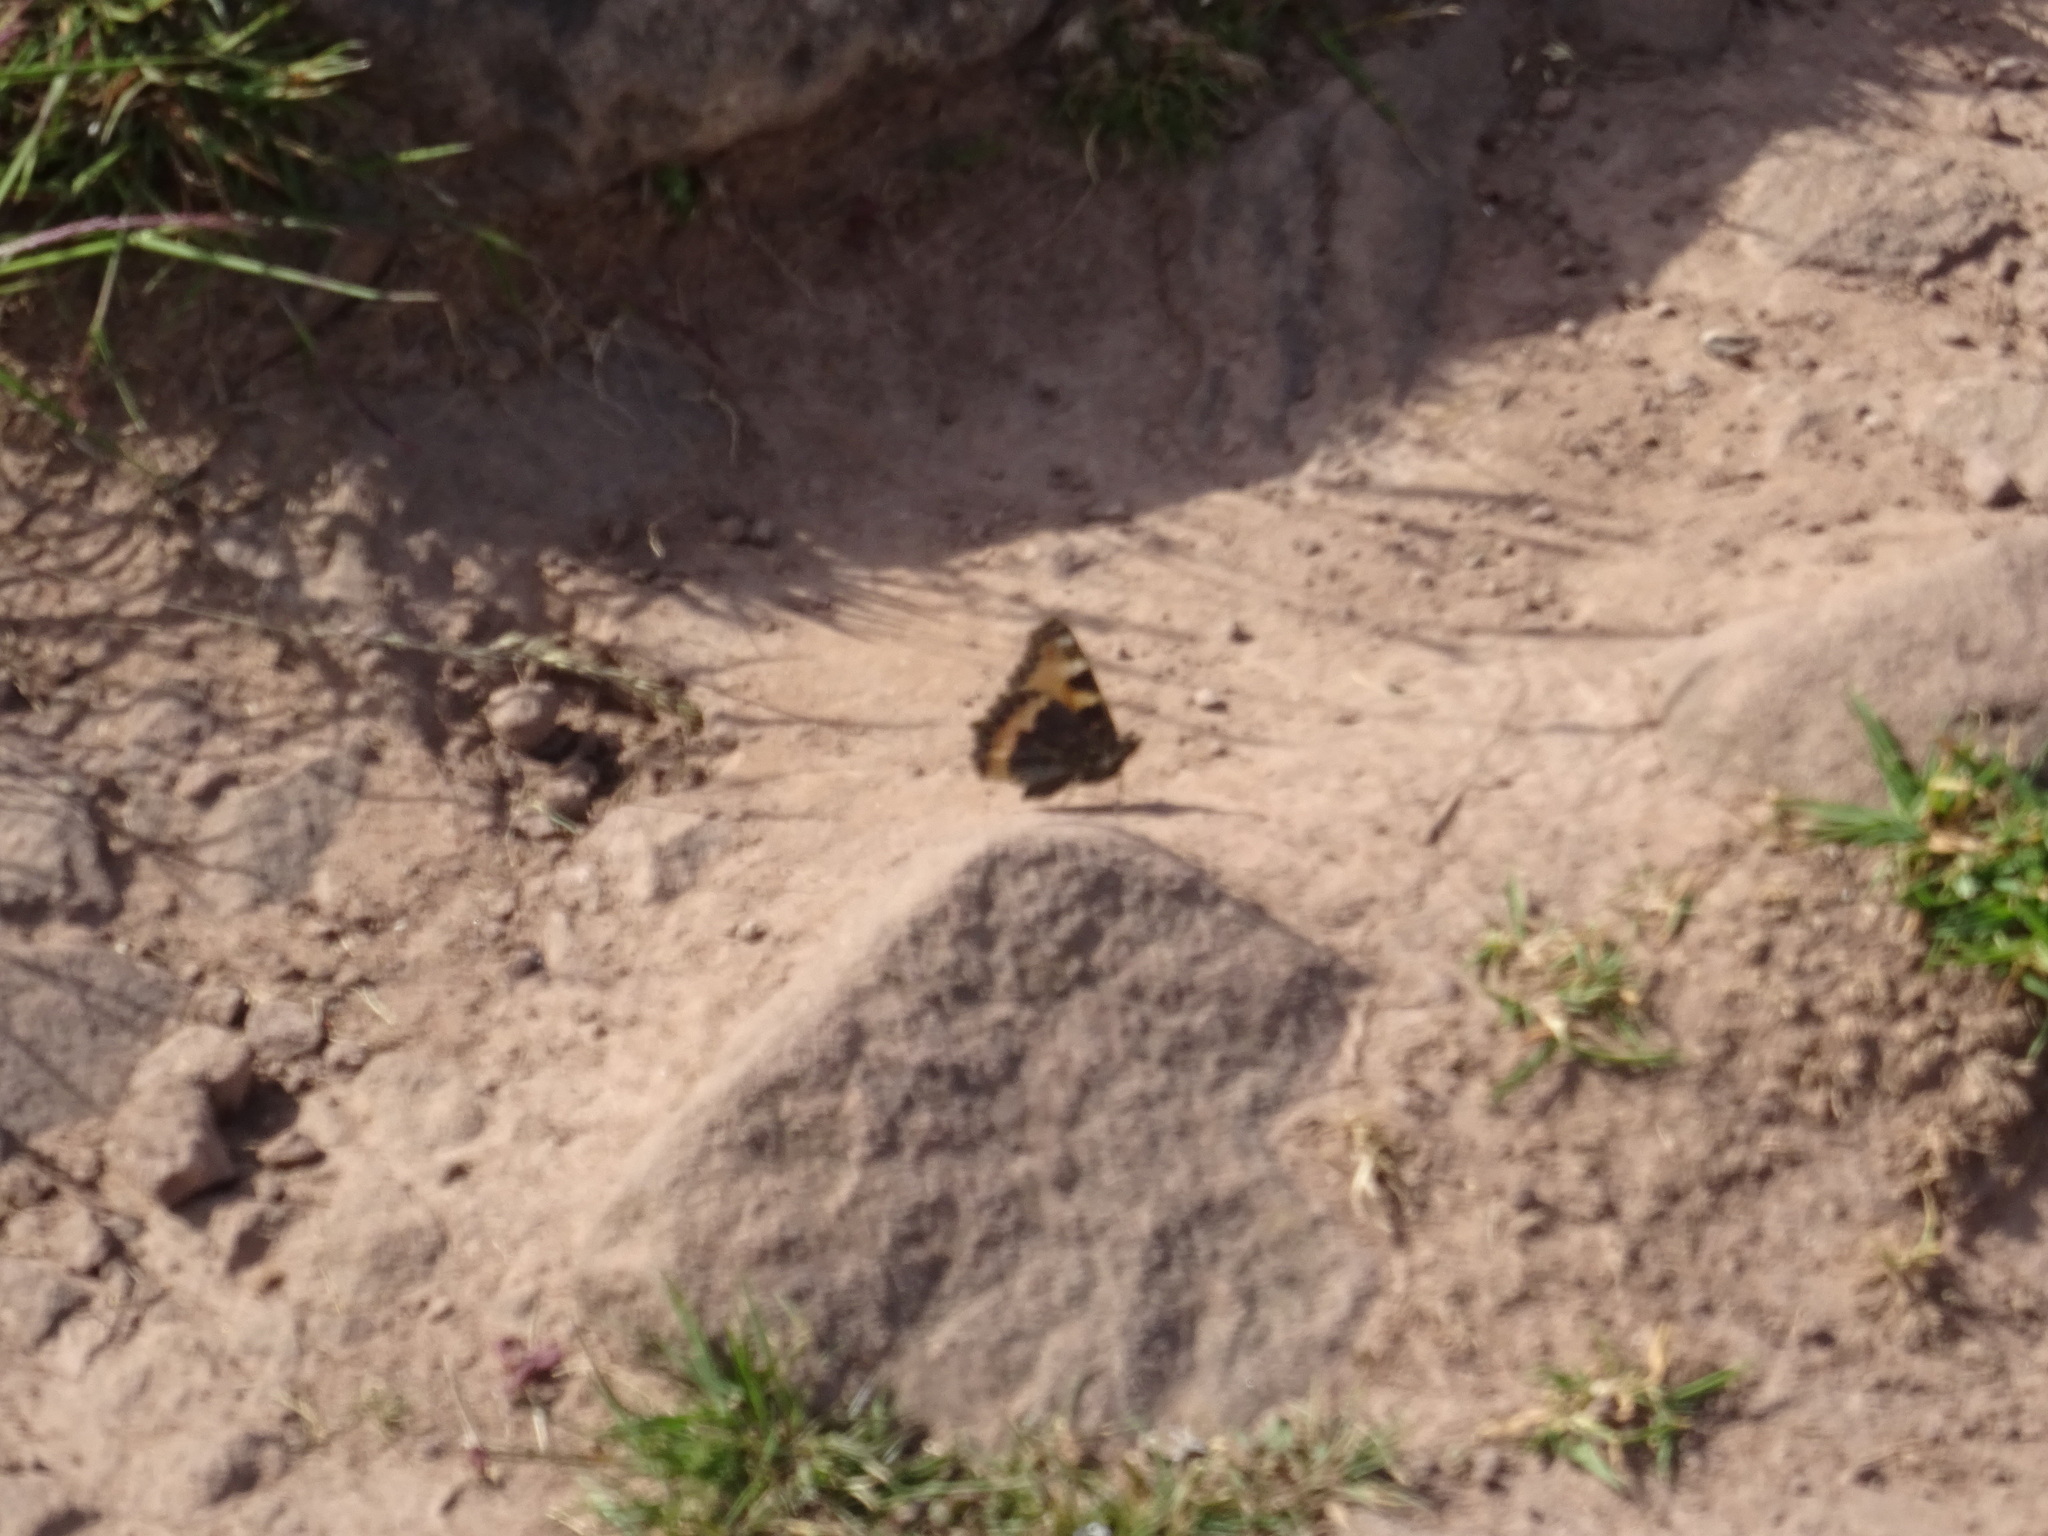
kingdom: Animalia
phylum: Arthropoda
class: Insecta
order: Lepidoptera
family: Nymphalidae
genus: Aglais
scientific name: Aglais urticae
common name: Small tortoiseshell
